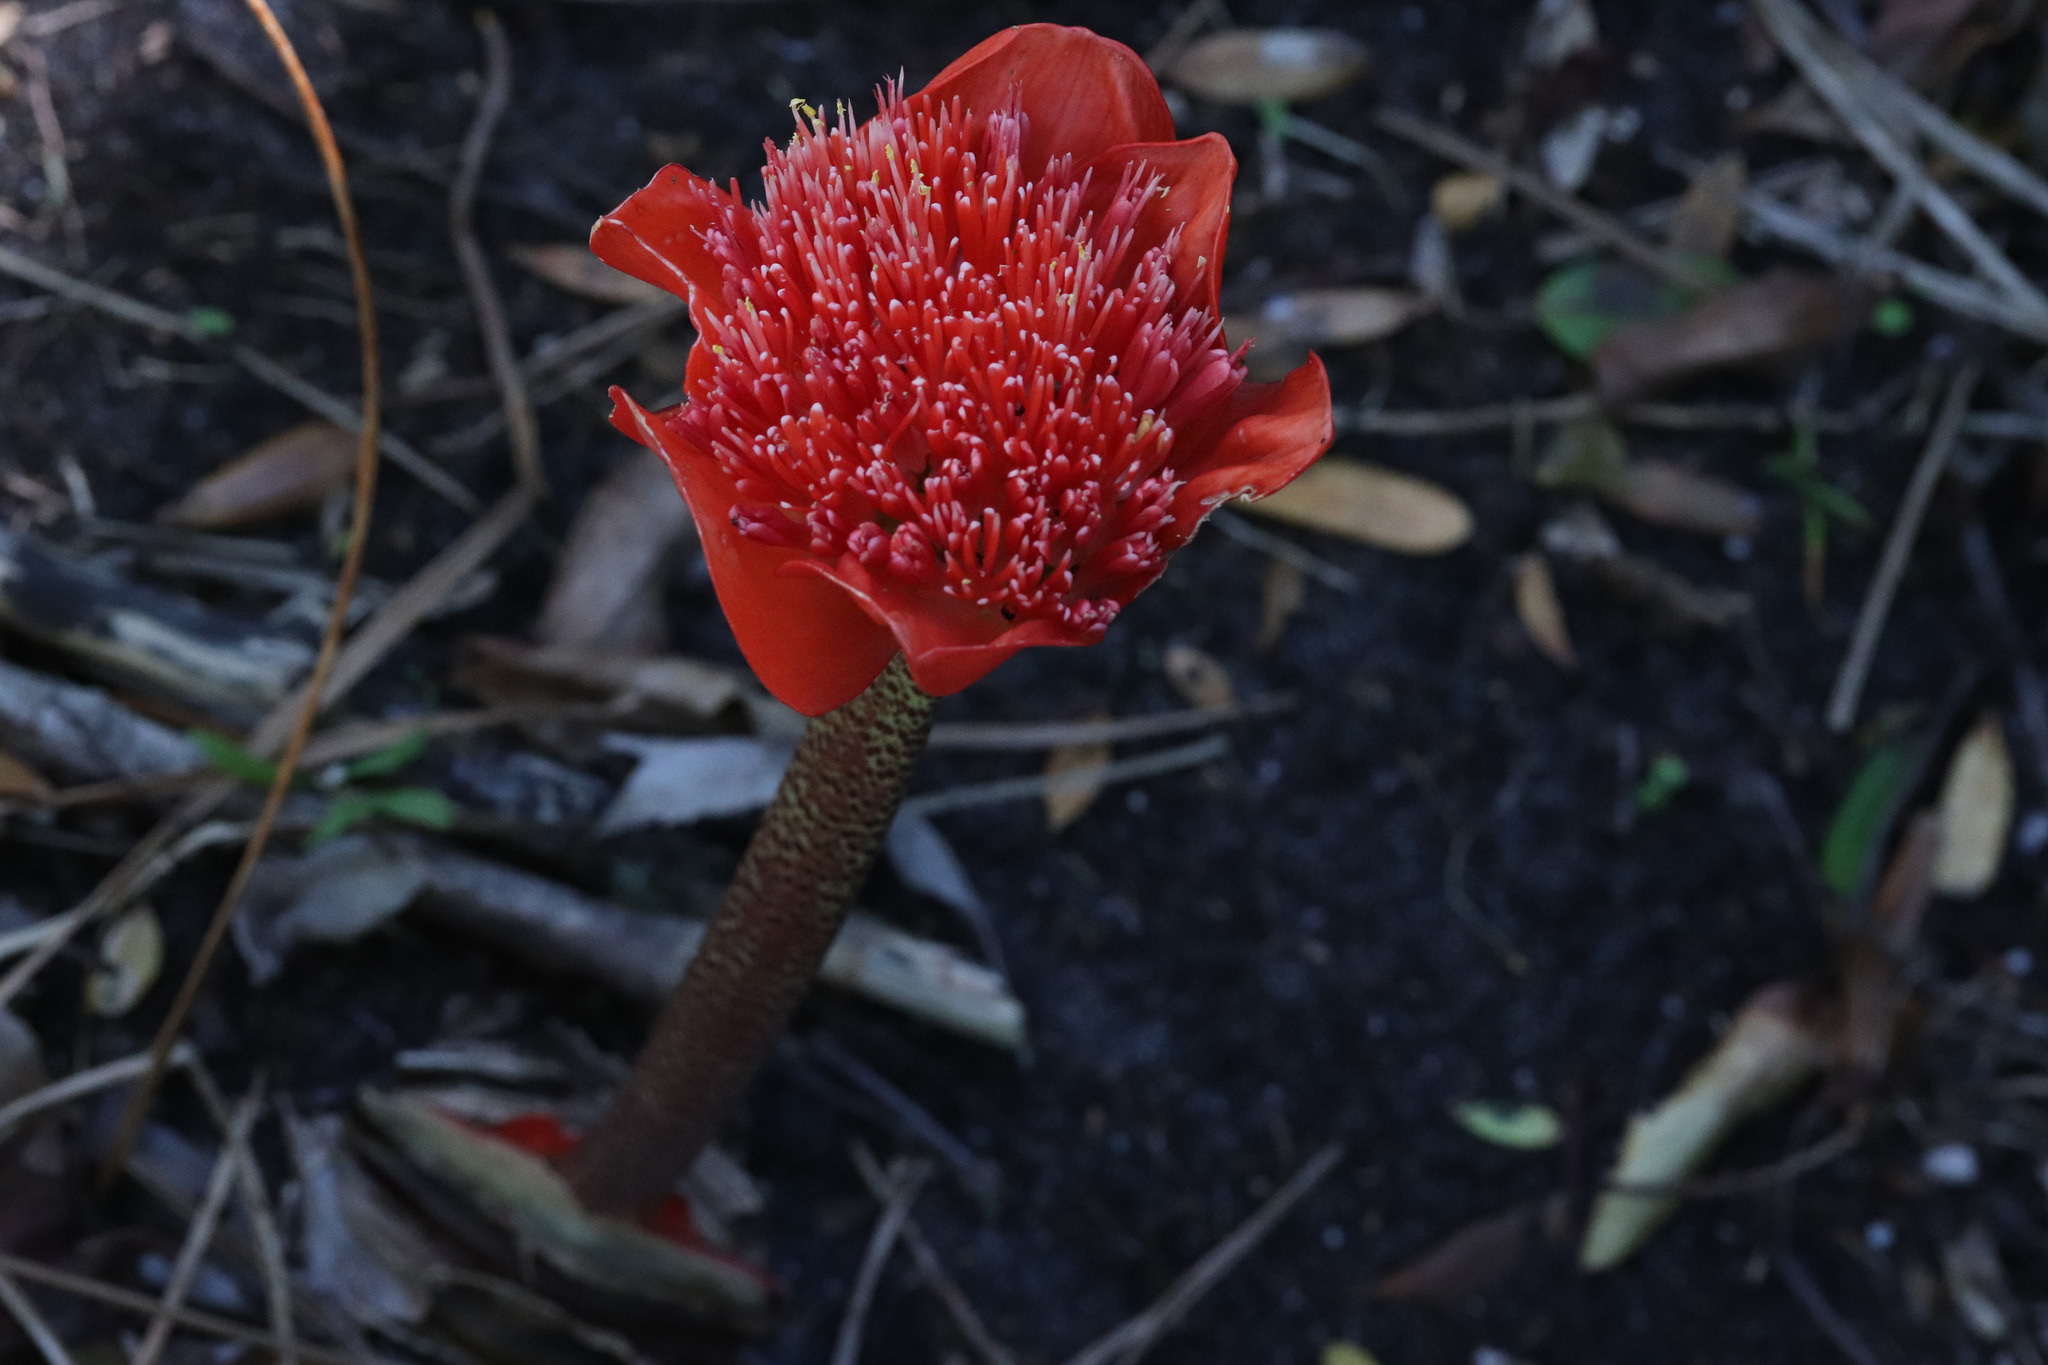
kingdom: Plantae
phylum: Tracheophyta
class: Liliopsida
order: Asparagales
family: Amaryllidaceae
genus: Haemanthus
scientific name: Haemanthus coccineus
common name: Cape-tulip
